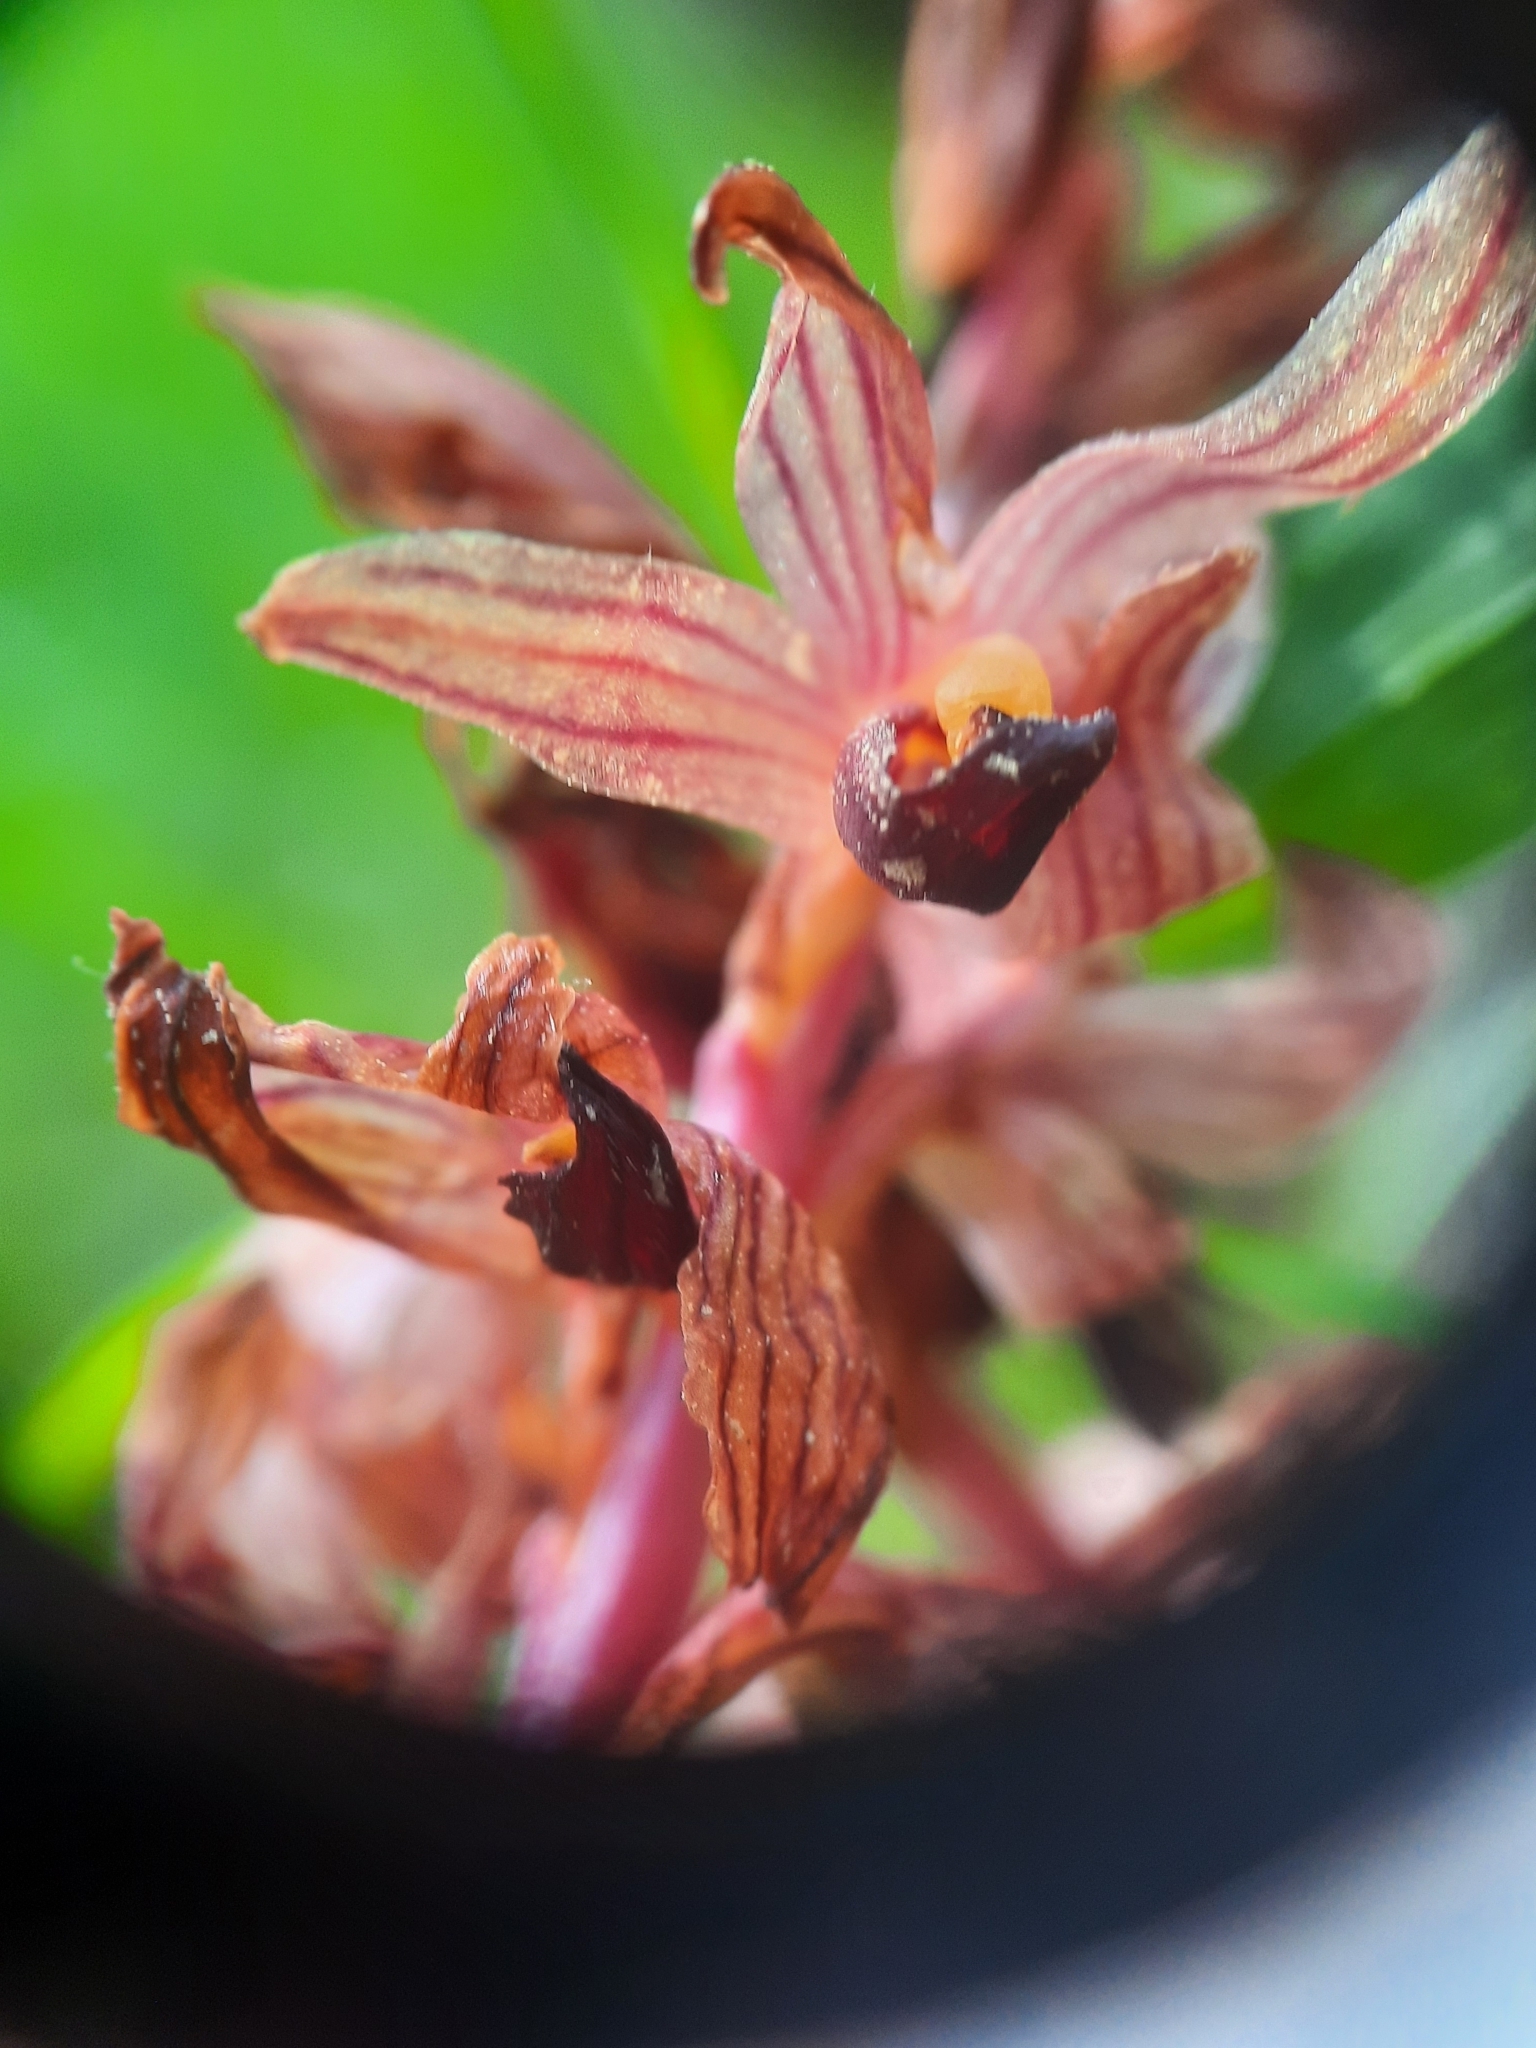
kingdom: Plantae
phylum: Tracheophyta
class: Liliopsida
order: Asparagales
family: Orchidaceae
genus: Corallorhiza
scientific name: Corallorhiza striata
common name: Hooded coralroot
